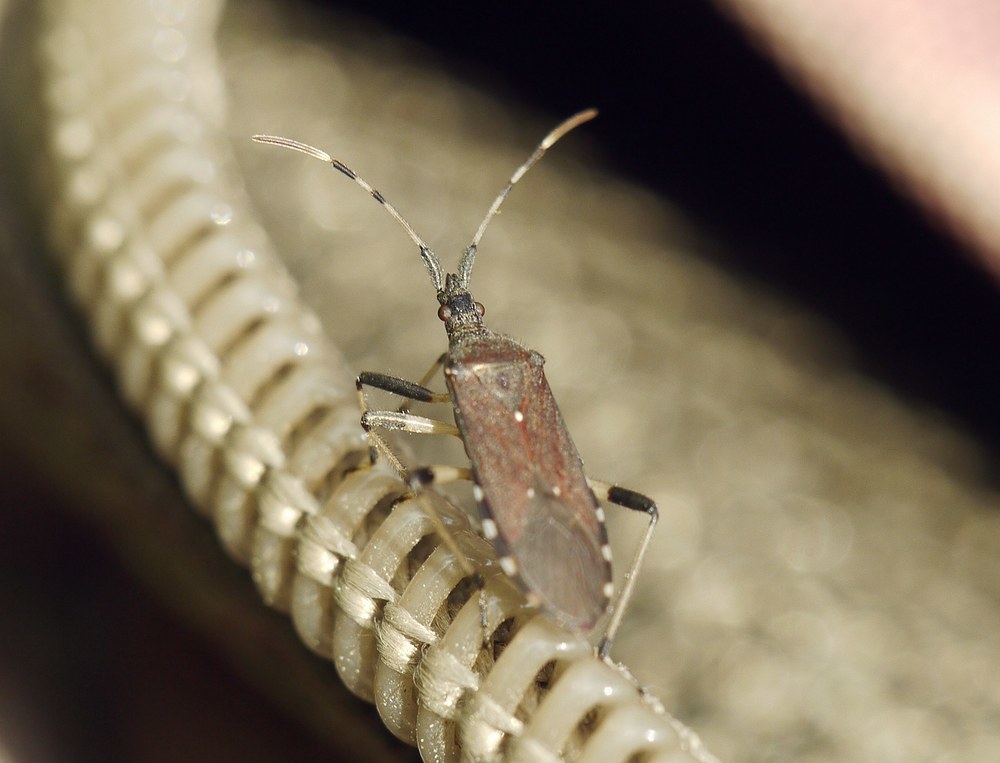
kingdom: Animalia
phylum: Arthropoda
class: Insecta
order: Hemiptera
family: Stenocephalidae
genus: Dicranocephalus
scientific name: Dicranocephalus albipes
